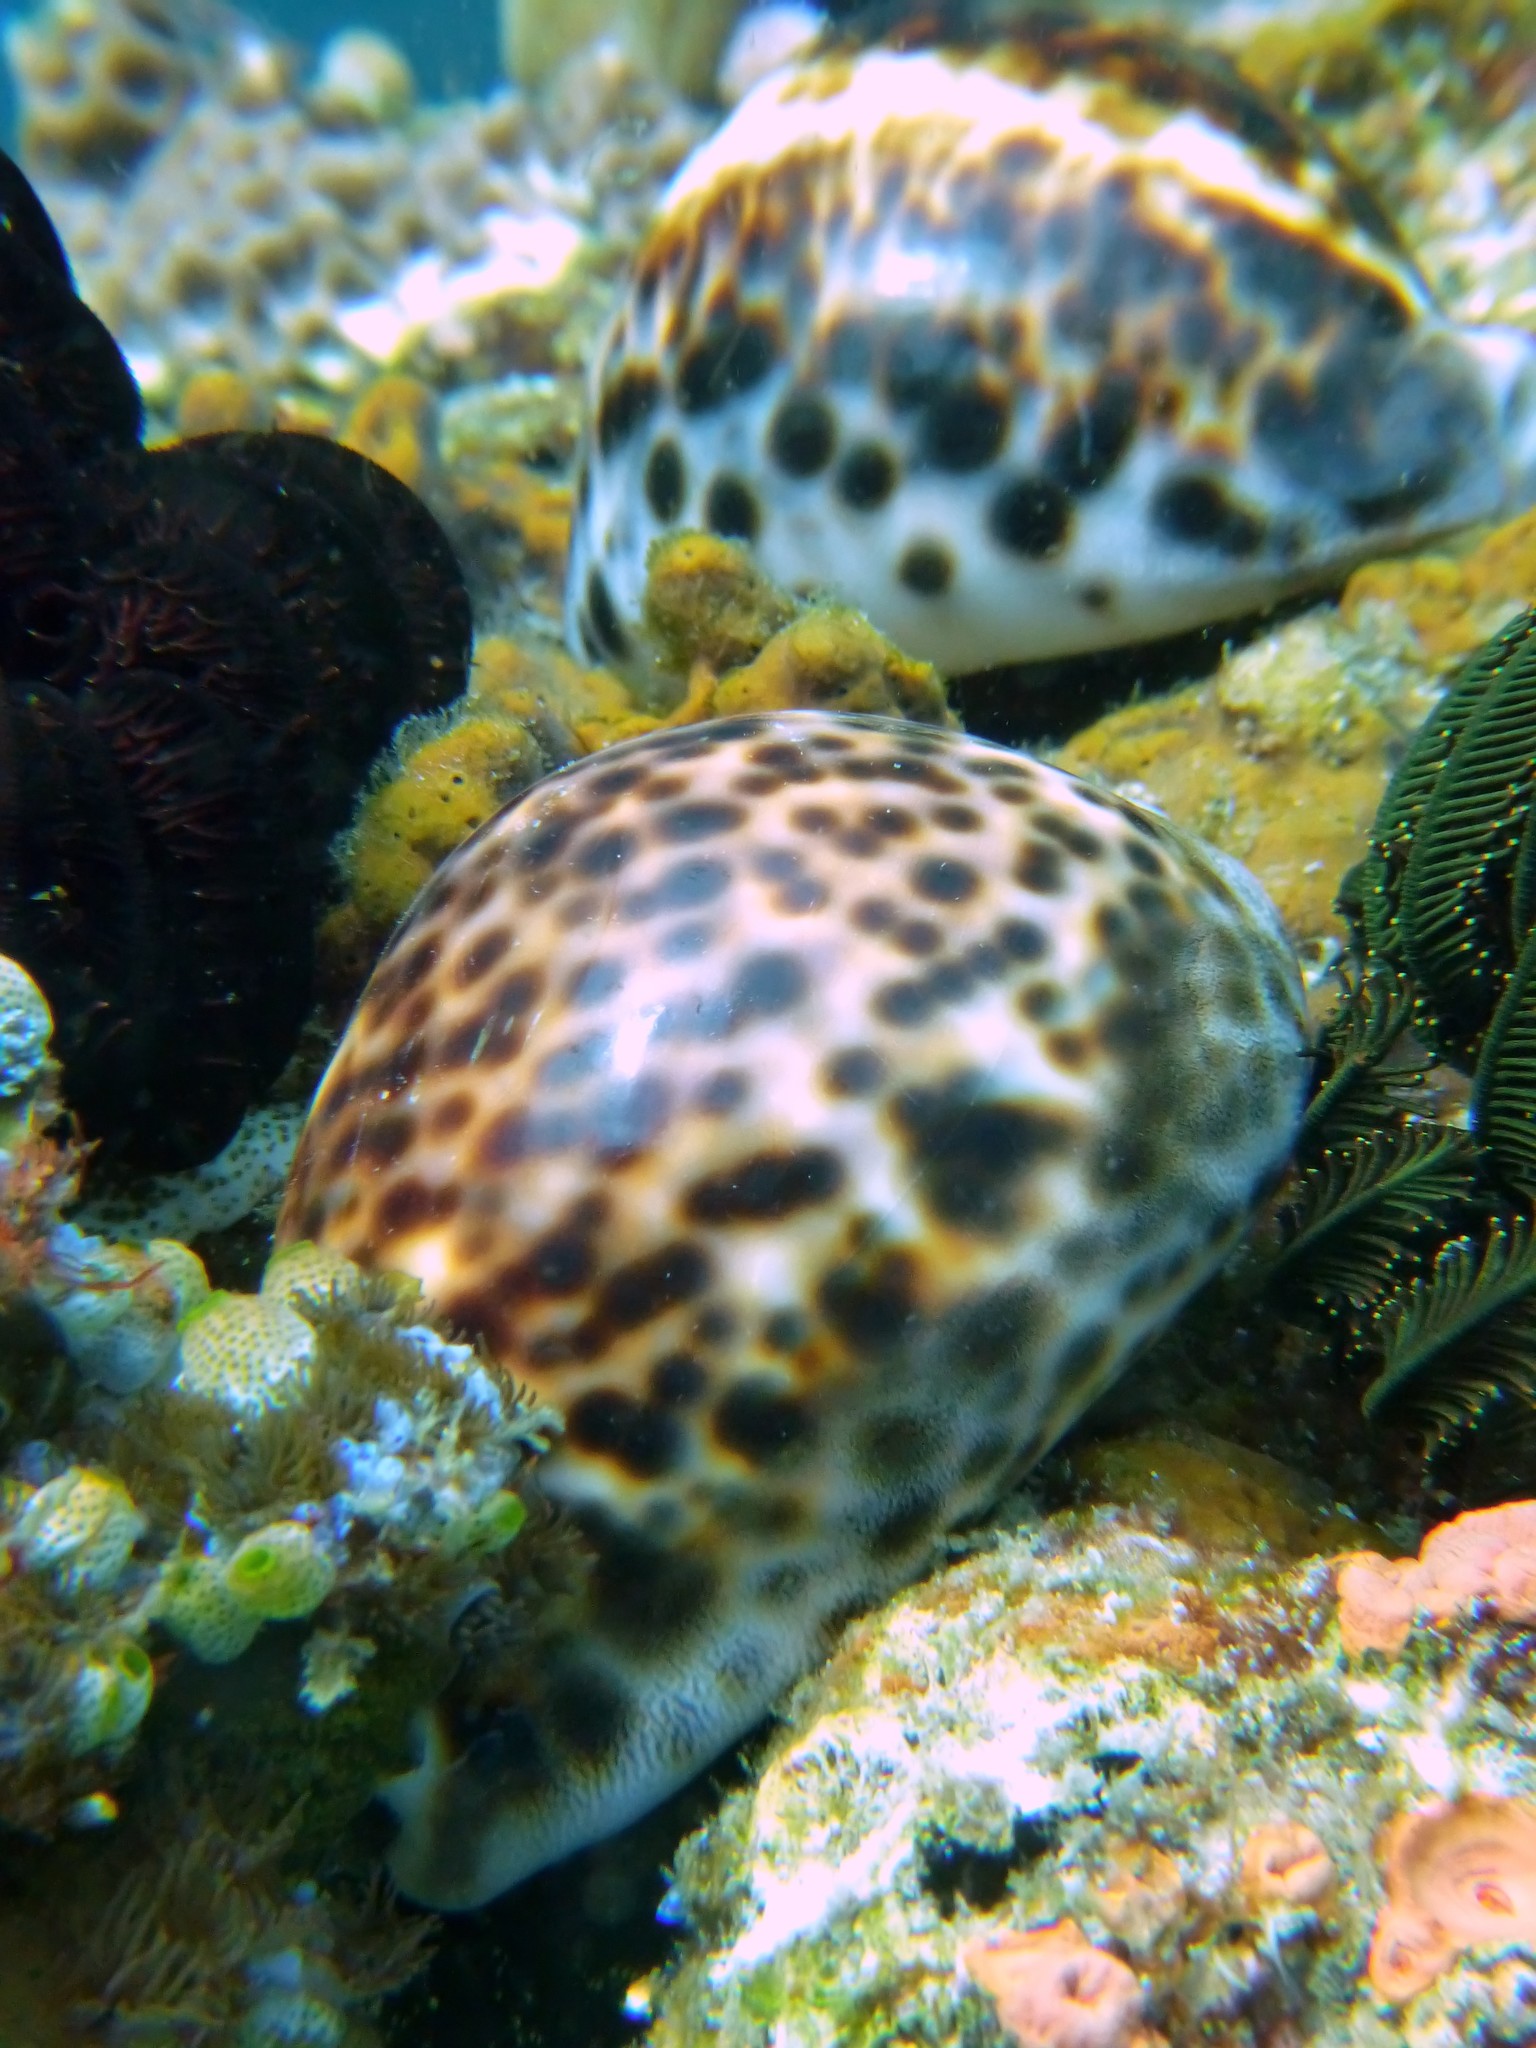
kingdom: Animalia
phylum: Mollusca
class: Gastropoda
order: Littorinimorpha
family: Cypraeidae
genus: Cypraea
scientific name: Cypraea tigris
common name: Tiger cowrie
